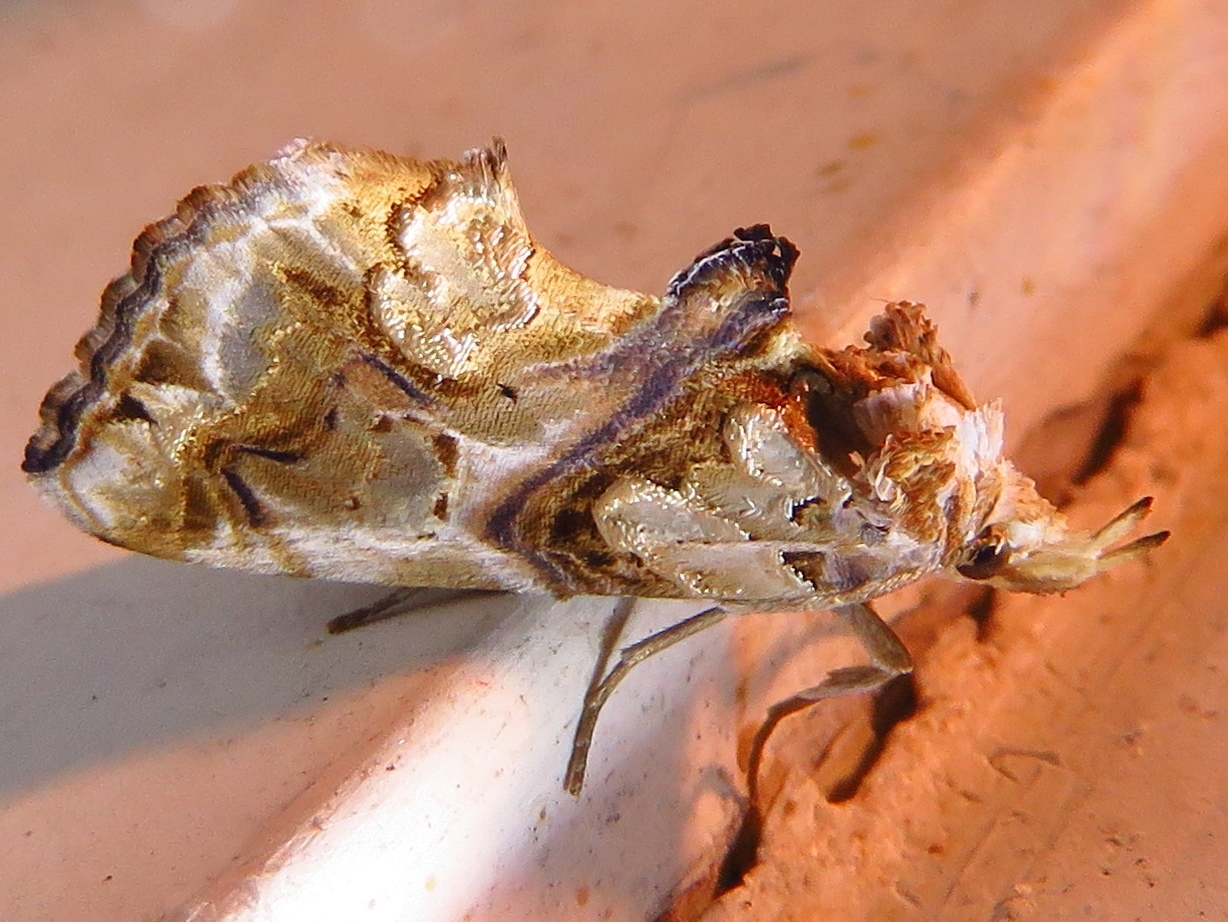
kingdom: Animalia
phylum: Arthropoda
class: Insecta
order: Lepidoptera
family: Erebidae
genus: Plusiodonta
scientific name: Plusiodonta compressipalpis
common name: Moonseed moth
